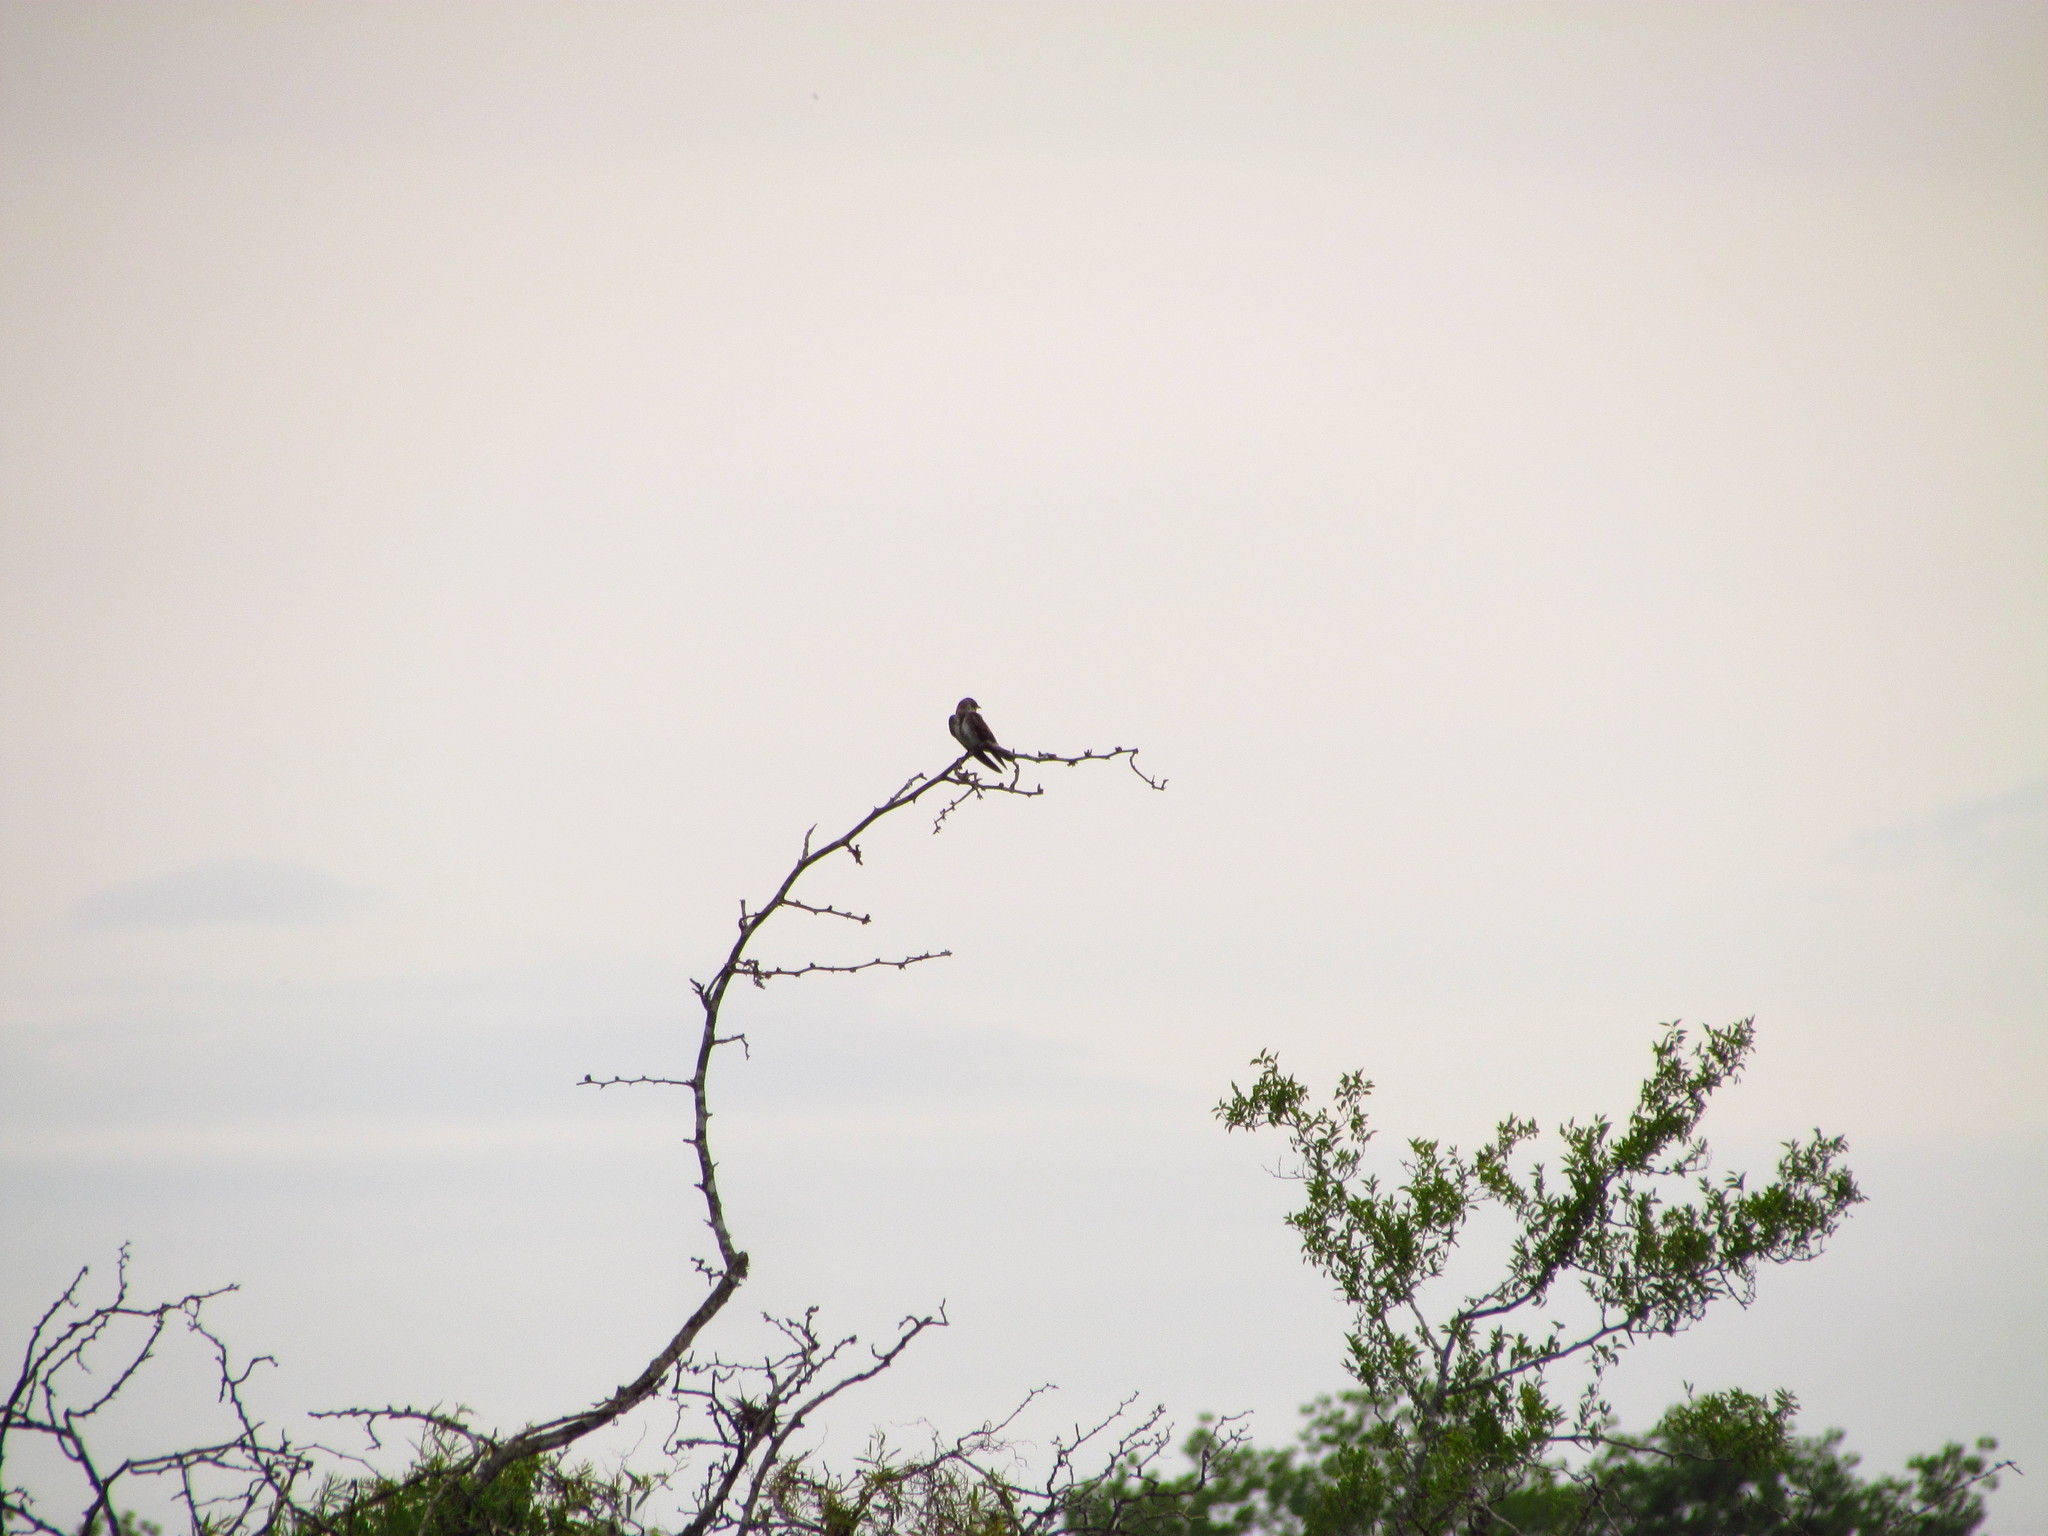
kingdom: Animalia
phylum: Chordata
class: Aves
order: Passeriformes
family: Hirundinidae
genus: Progne
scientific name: Progne tapera
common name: Brown-chested martin
